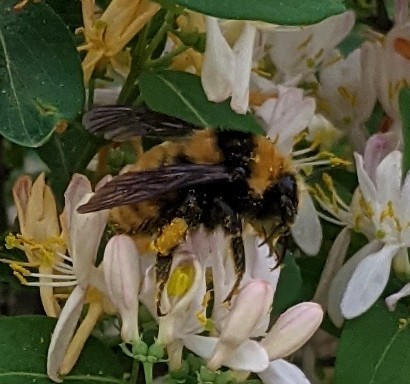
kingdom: Animalia
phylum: Arthropoda
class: Insecta
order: Hymenoptera
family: Apidae
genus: Bombus
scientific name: Bombus borealis
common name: Northern amber bumble bee
